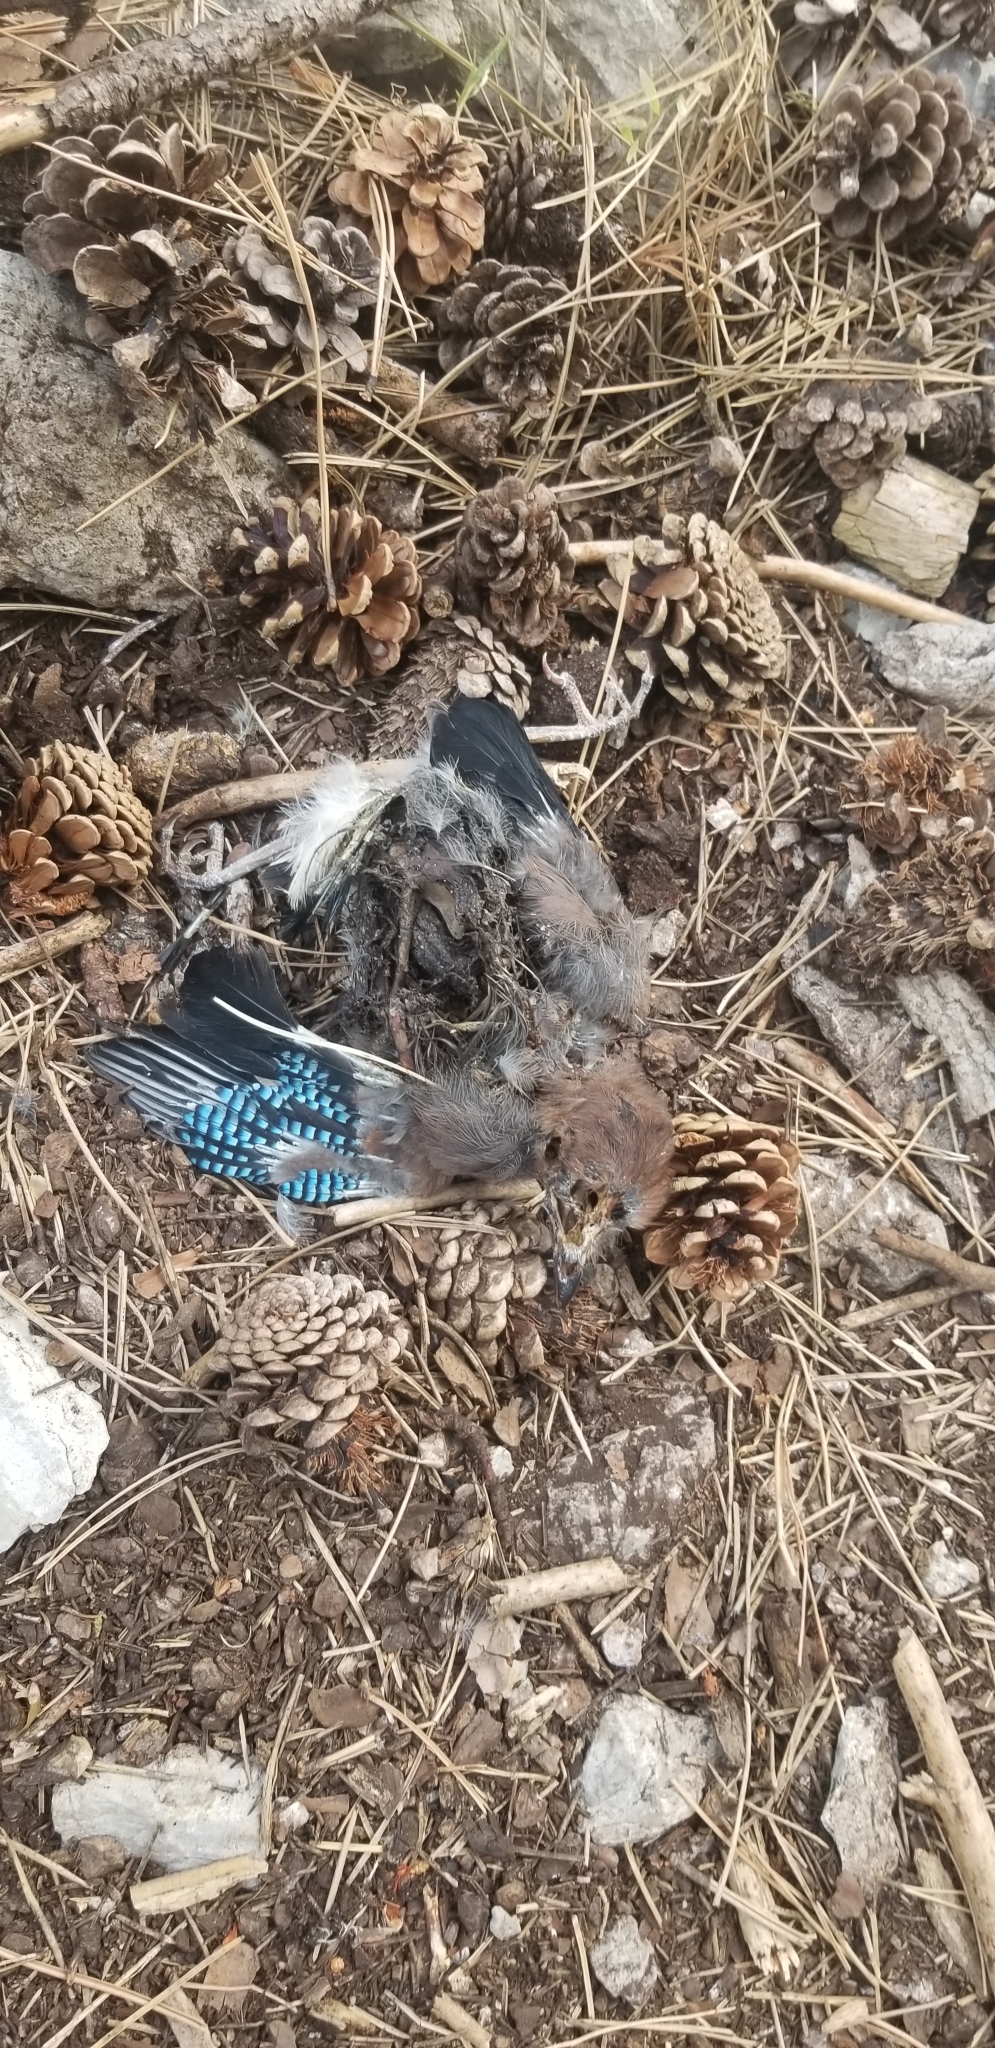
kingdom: Animalia
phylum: Chordata
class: Aves
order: Passeriformes
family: Corvidae
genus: Garrulus
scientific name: Garrulus glandarius
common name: Eurasian jay
